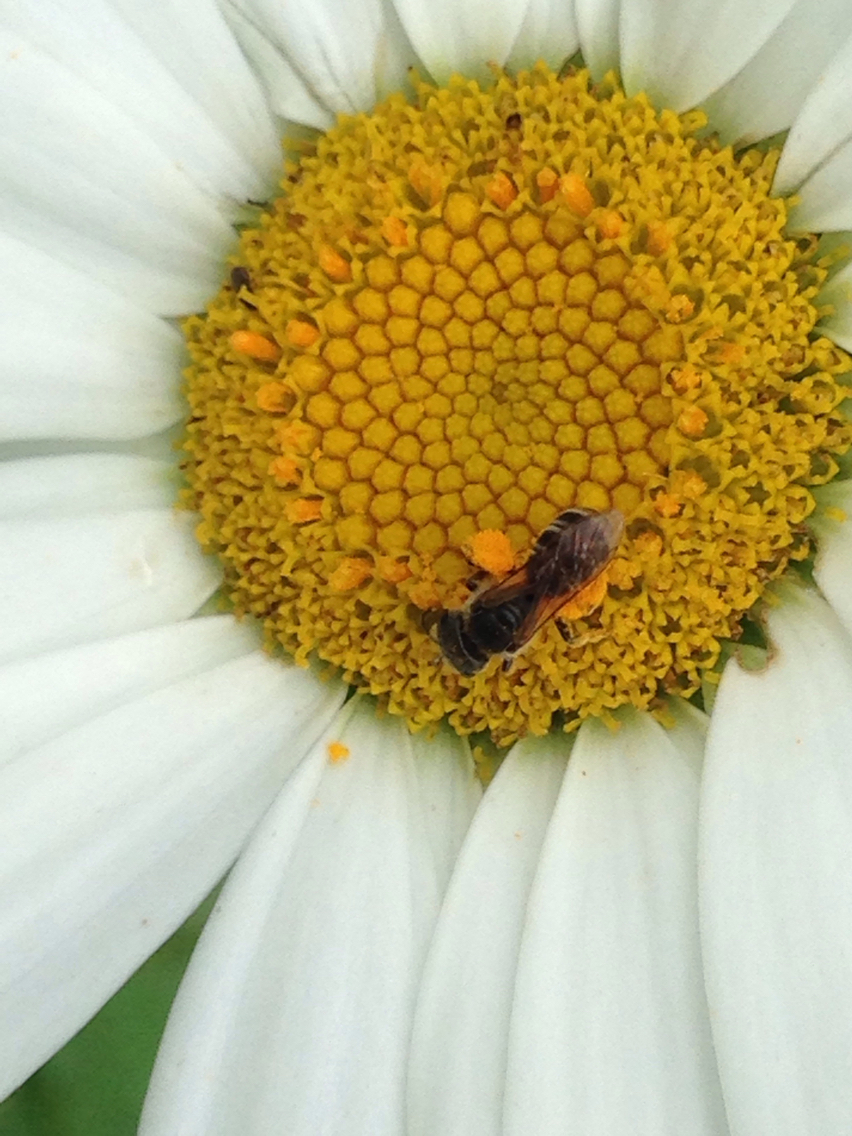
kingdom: Animalia
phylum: Arthropoda
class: Insecta
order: Hymenoptera
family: Halictidae
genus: Halictus
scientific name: Halictus ligatus
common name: Ligated furrow bee
